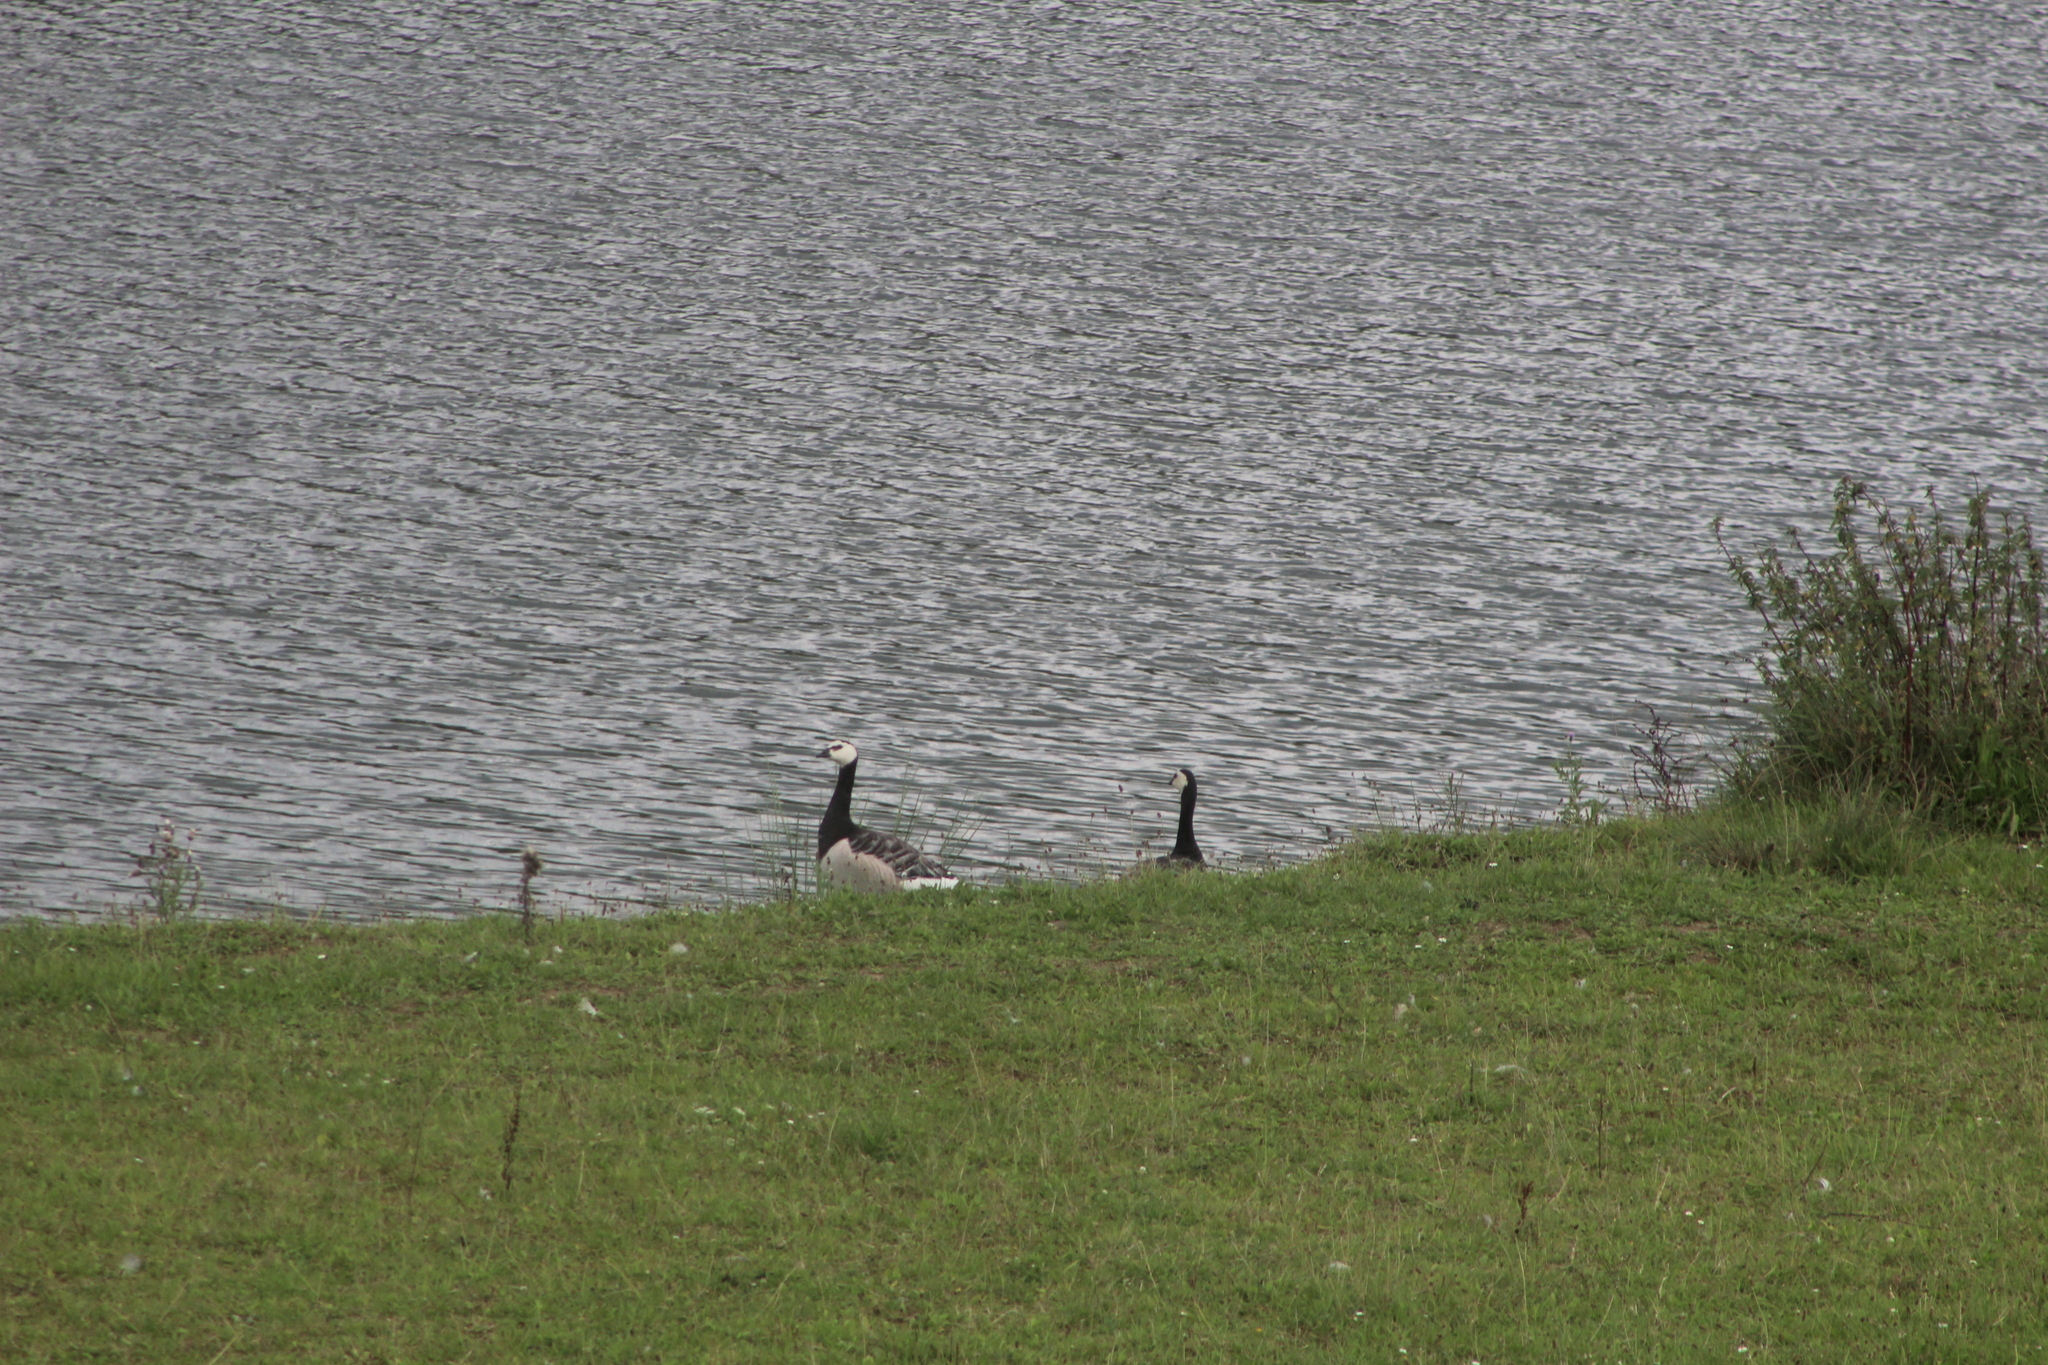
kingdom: Animalia
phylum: Chordata
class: Aves
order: Anseriformes
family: Anatidae
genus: Branta
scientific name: Branta leucopsis
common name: Barnacle goose
